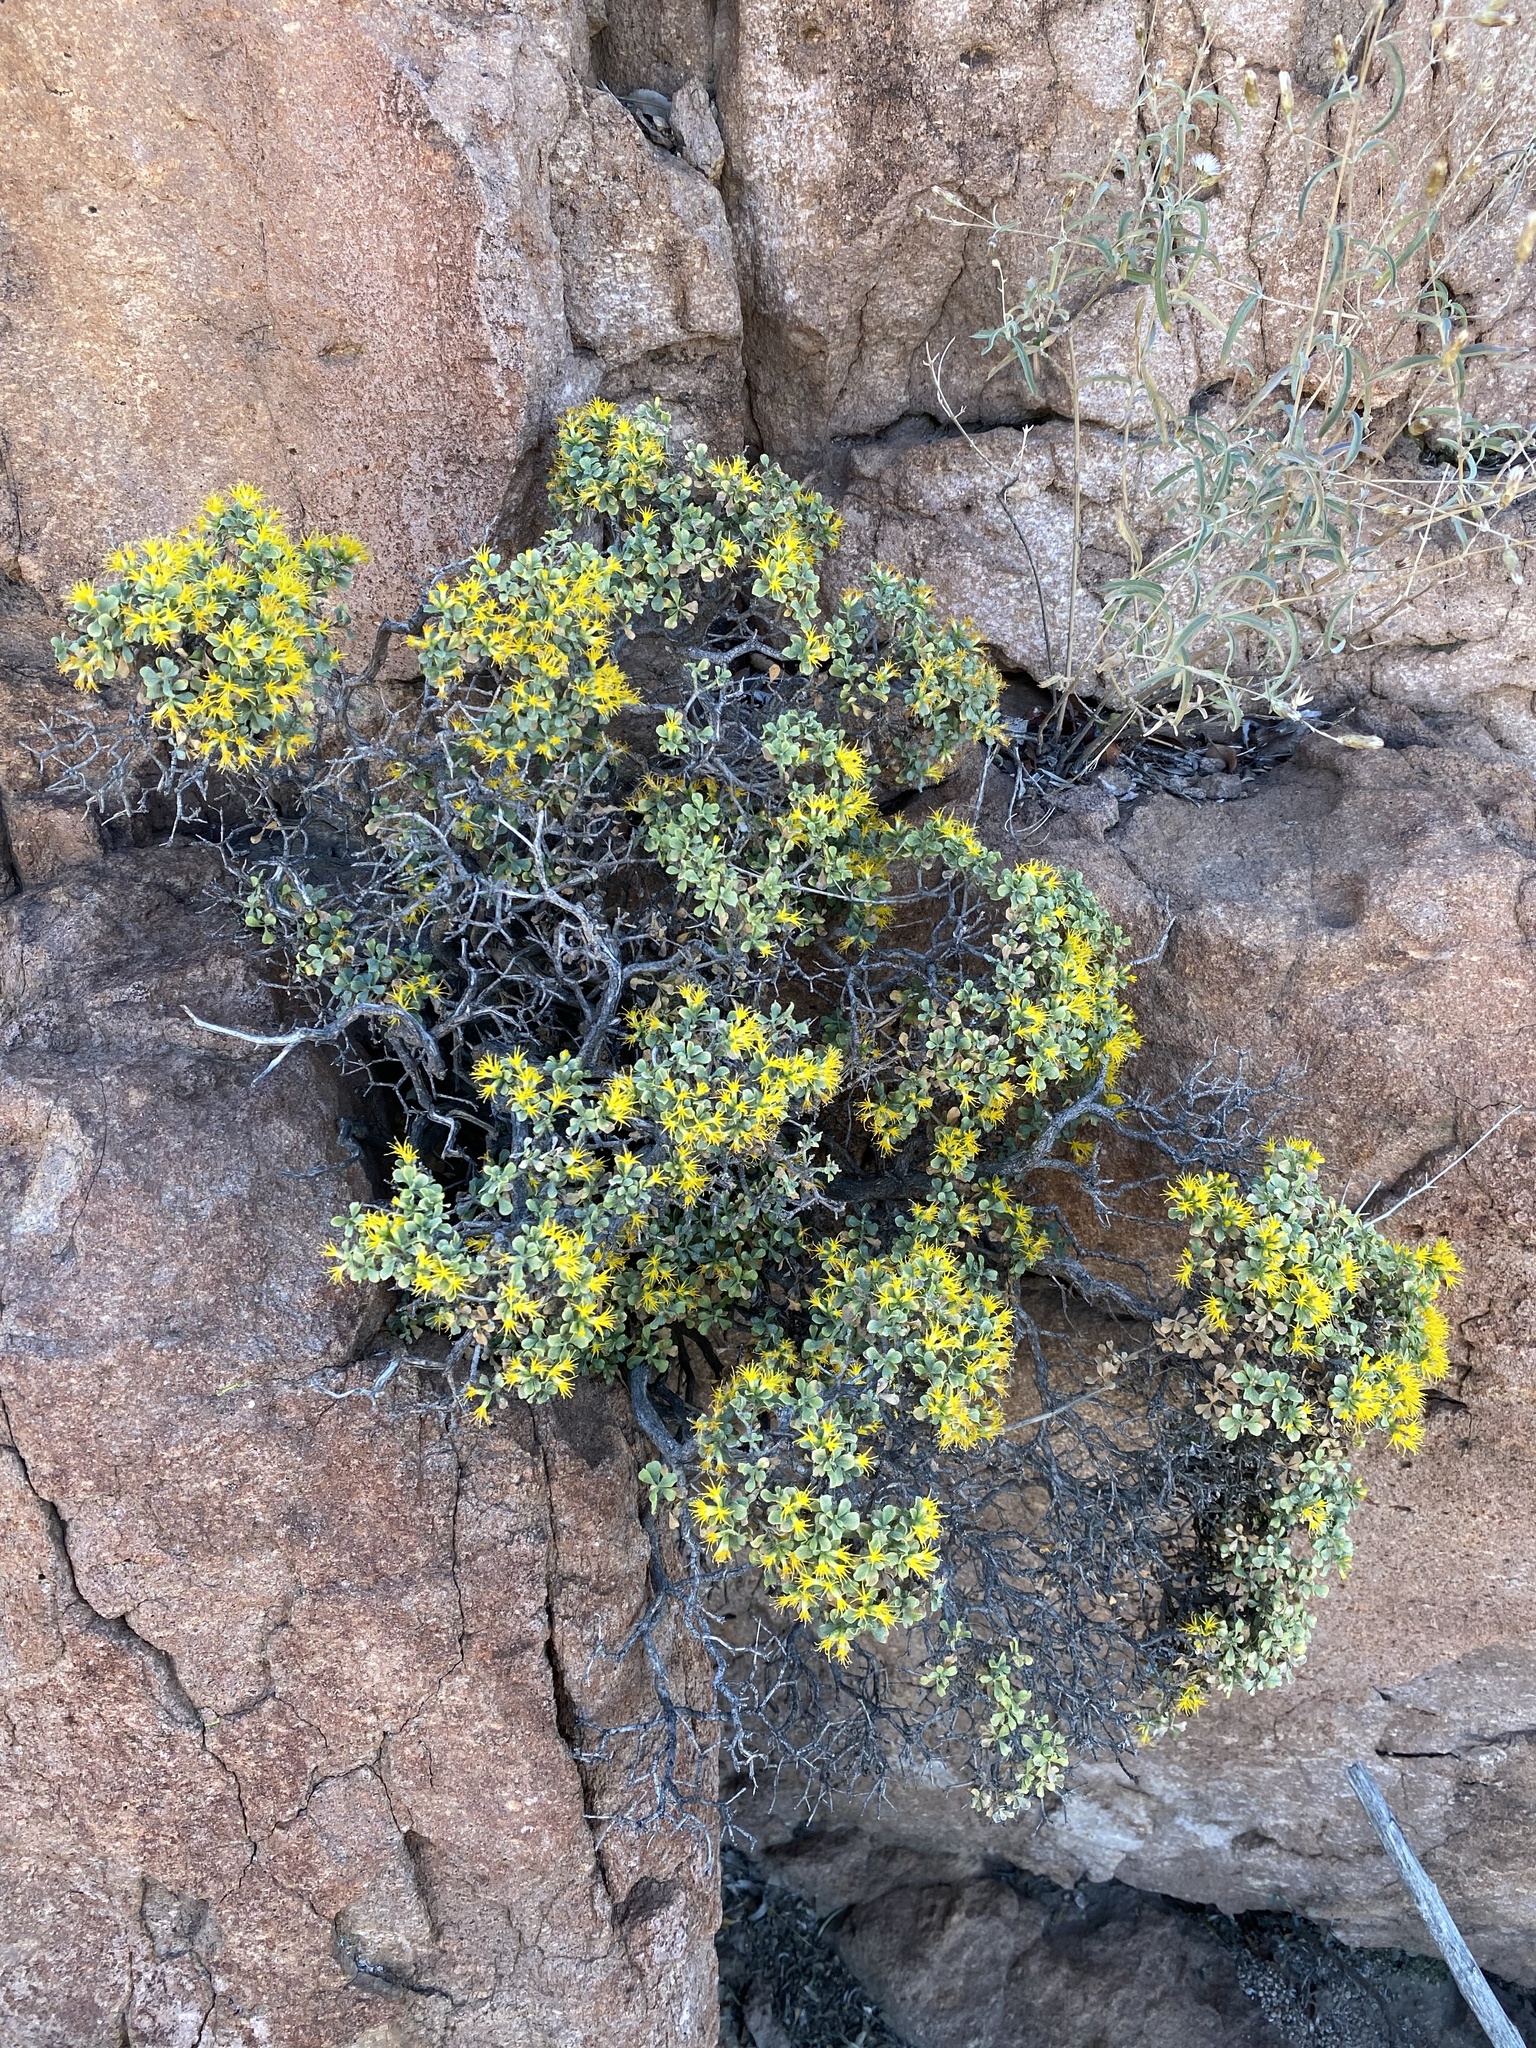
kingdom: Plantae
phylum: Tracheophyta
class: Magnoliopsida
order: Asterales
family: Asteraceae
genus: Ericameria
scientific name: Ericameria cuneata
